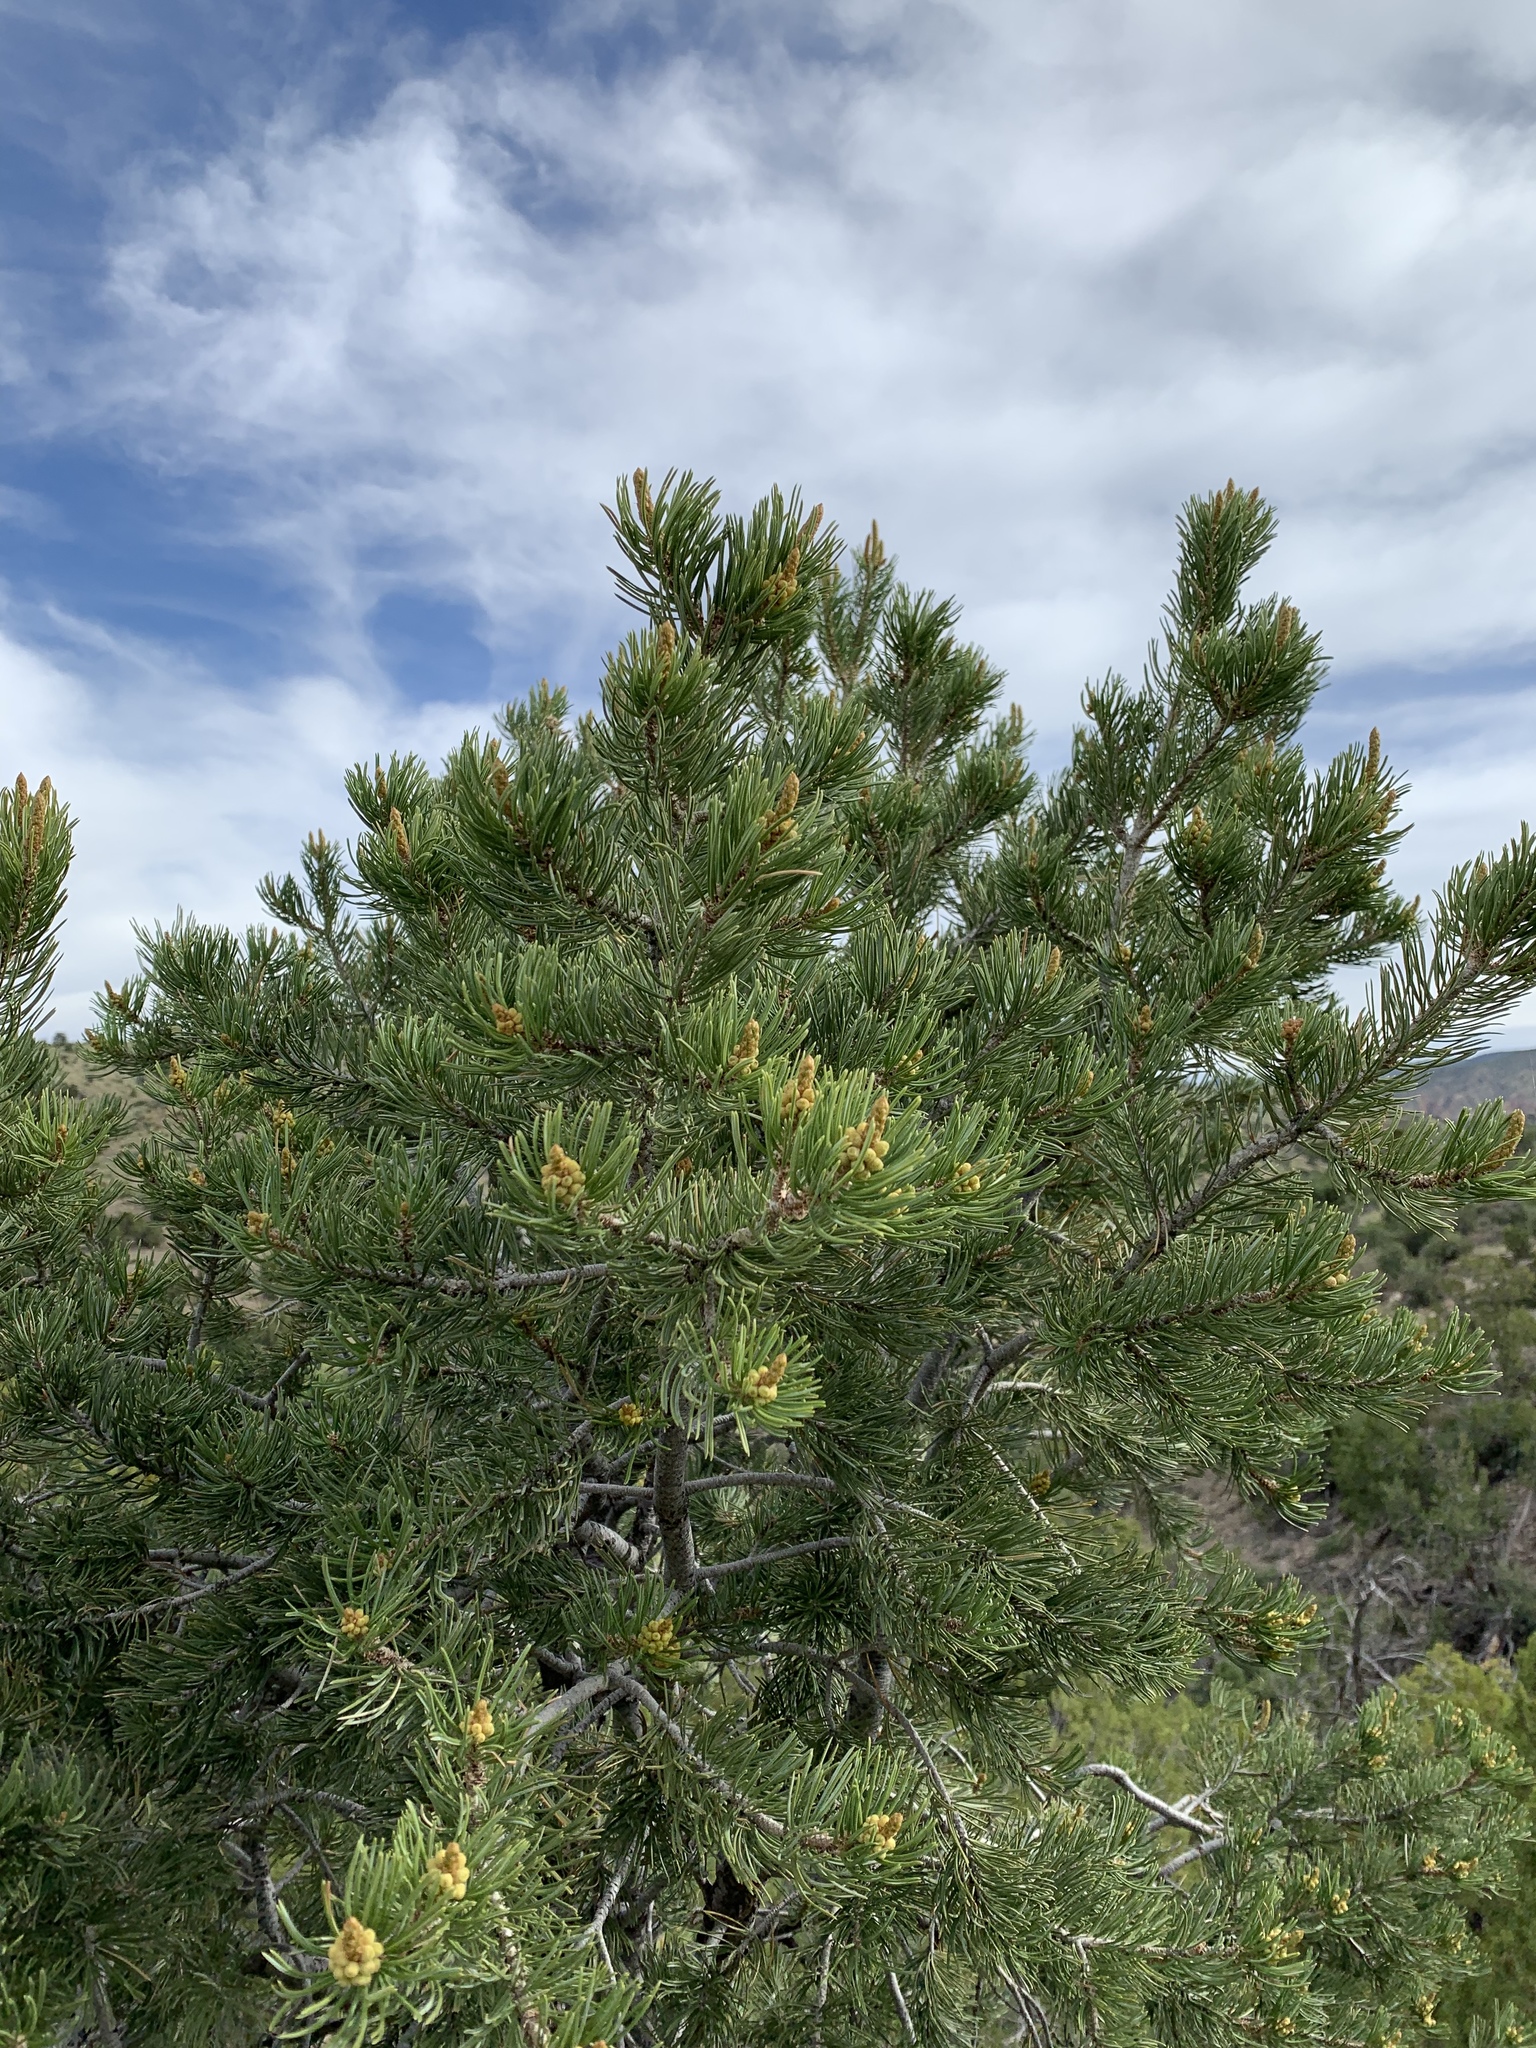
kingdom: Plantae
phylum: Tracheophyta
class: Pinopsida
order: Pinales
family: Pinaceae
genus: Pinus
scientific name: Pinus edulis
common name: Colorado pinyon
